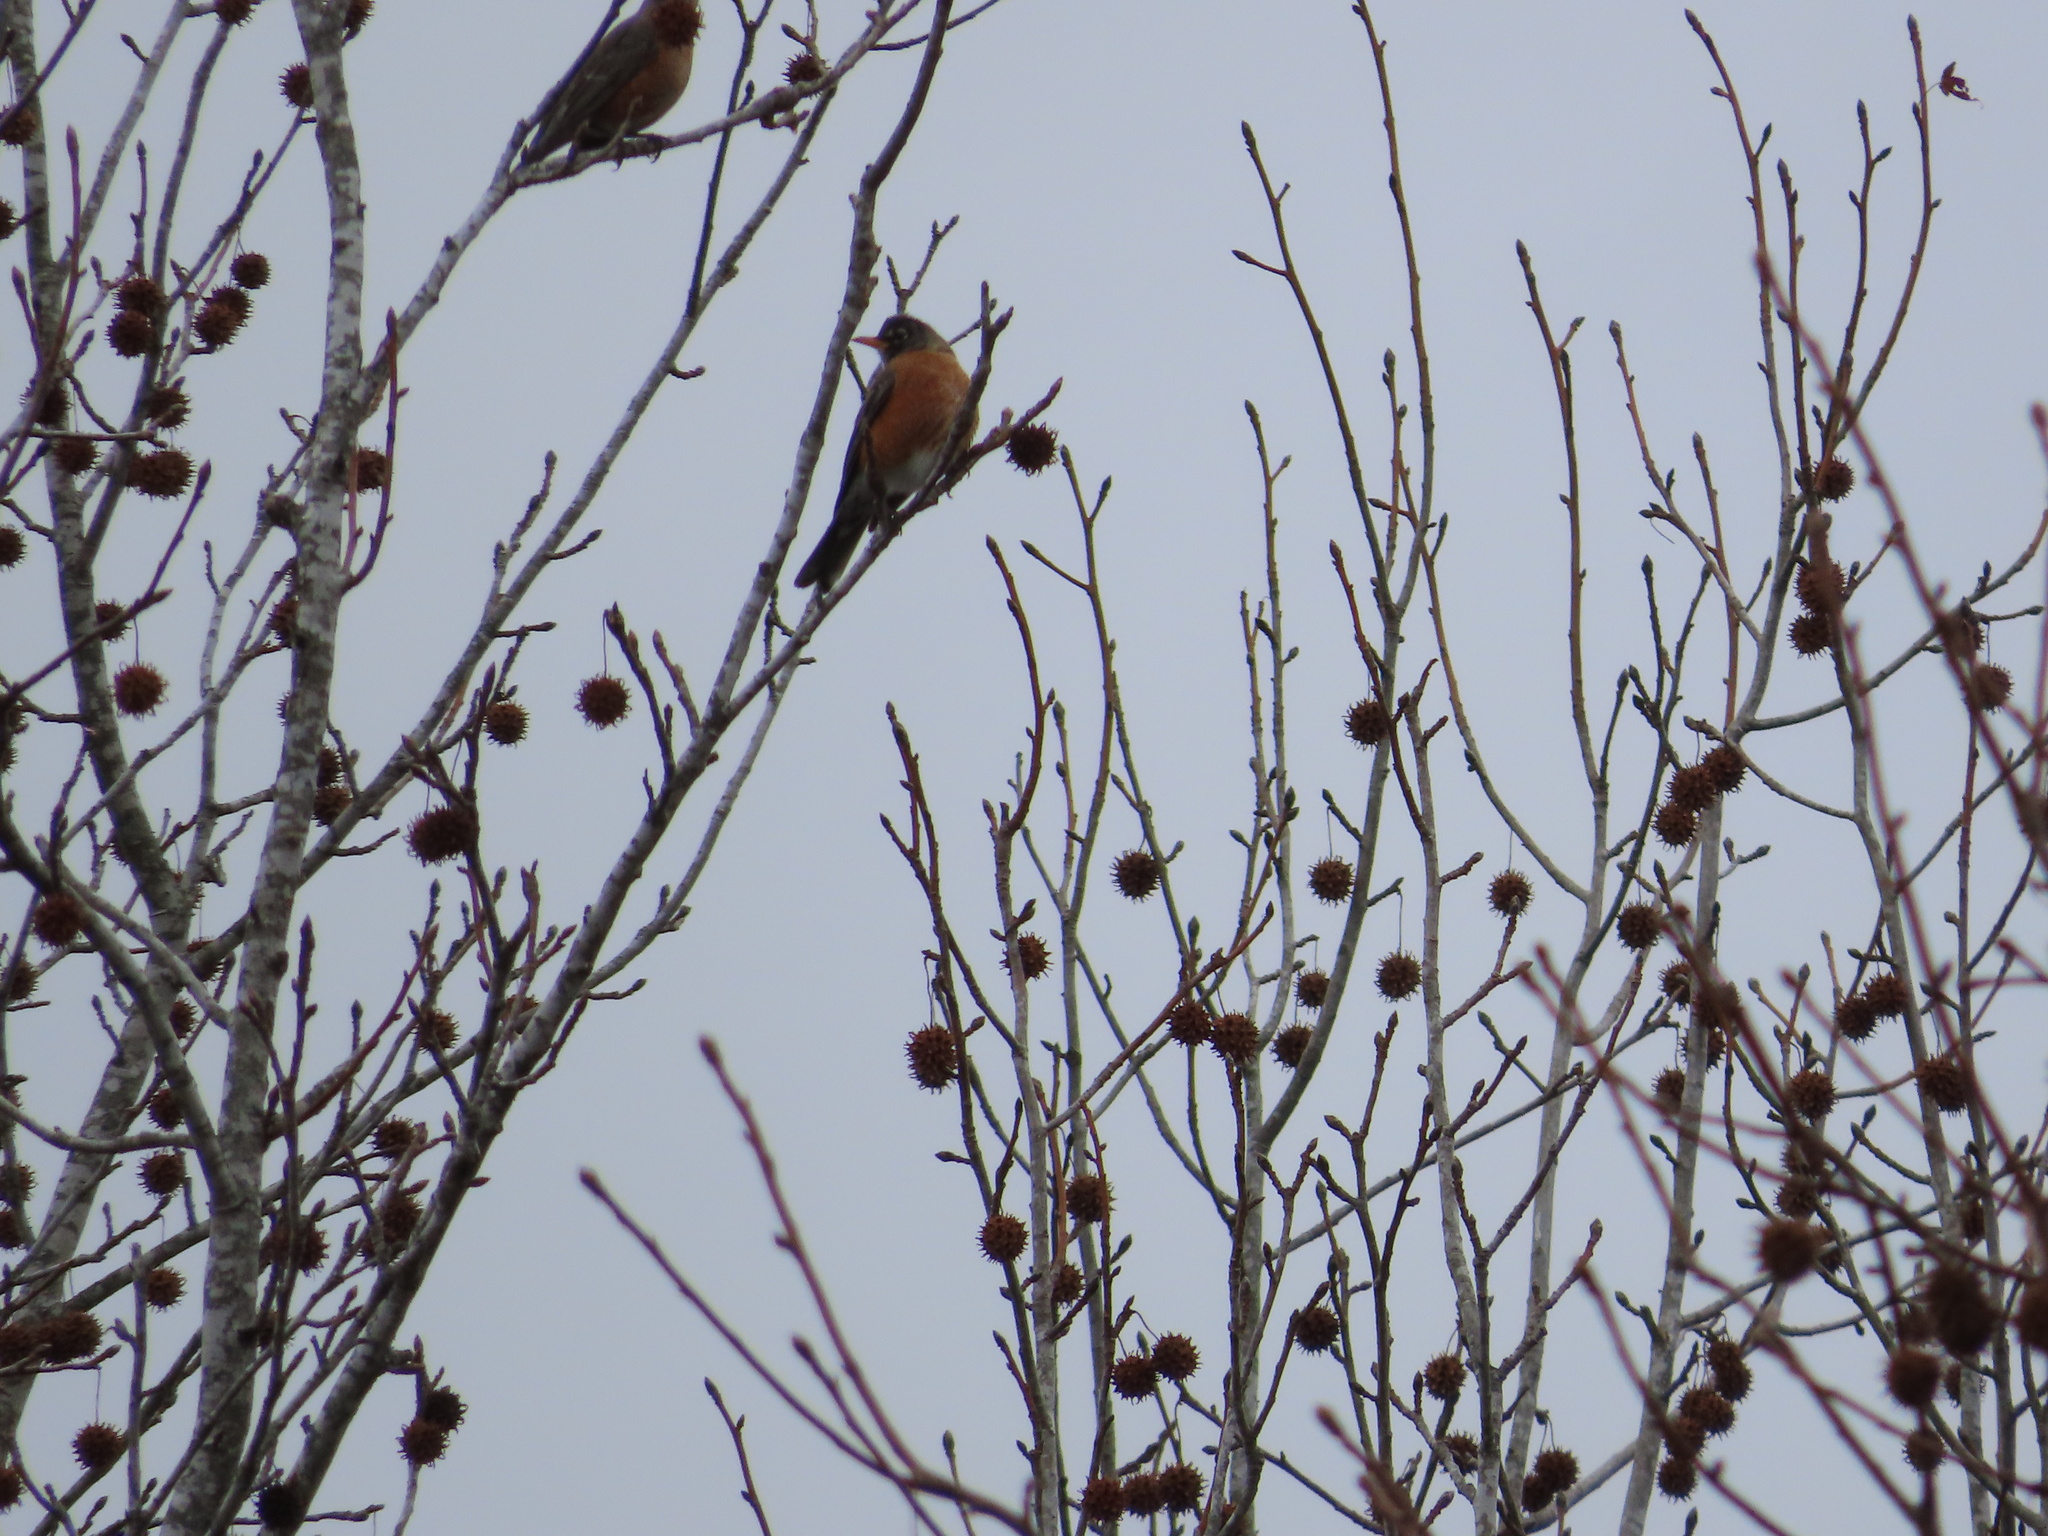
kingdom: Animalia
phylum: Chordata
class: Aves
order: Passeriformes
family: Turdidae
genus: Turdus
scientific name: Turdus migratorius
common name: American robin
